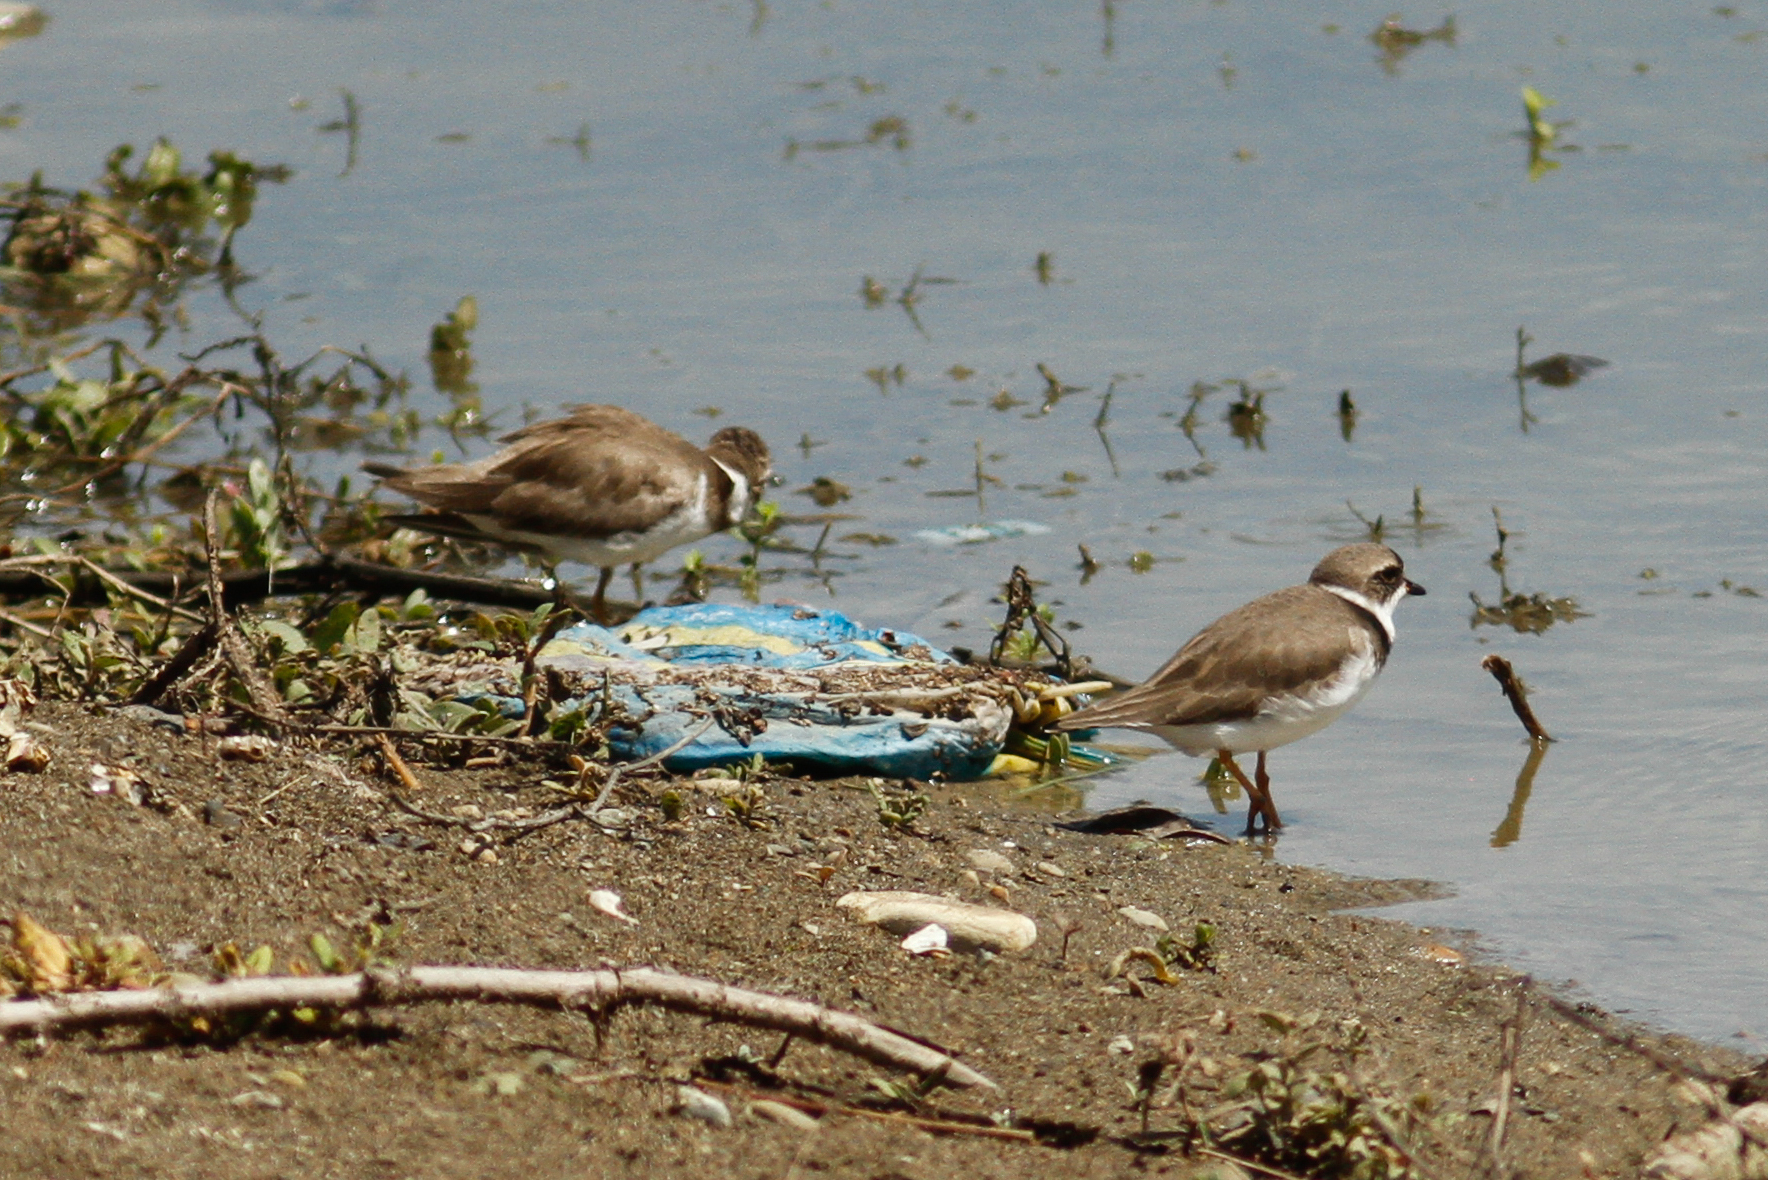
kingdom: Animalia
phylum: Chordata
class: Aves
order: Charadriiformes
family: Charadriidae
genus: Charadrius
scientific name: Charadrius semipalmatus
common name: Semipalmated plover
